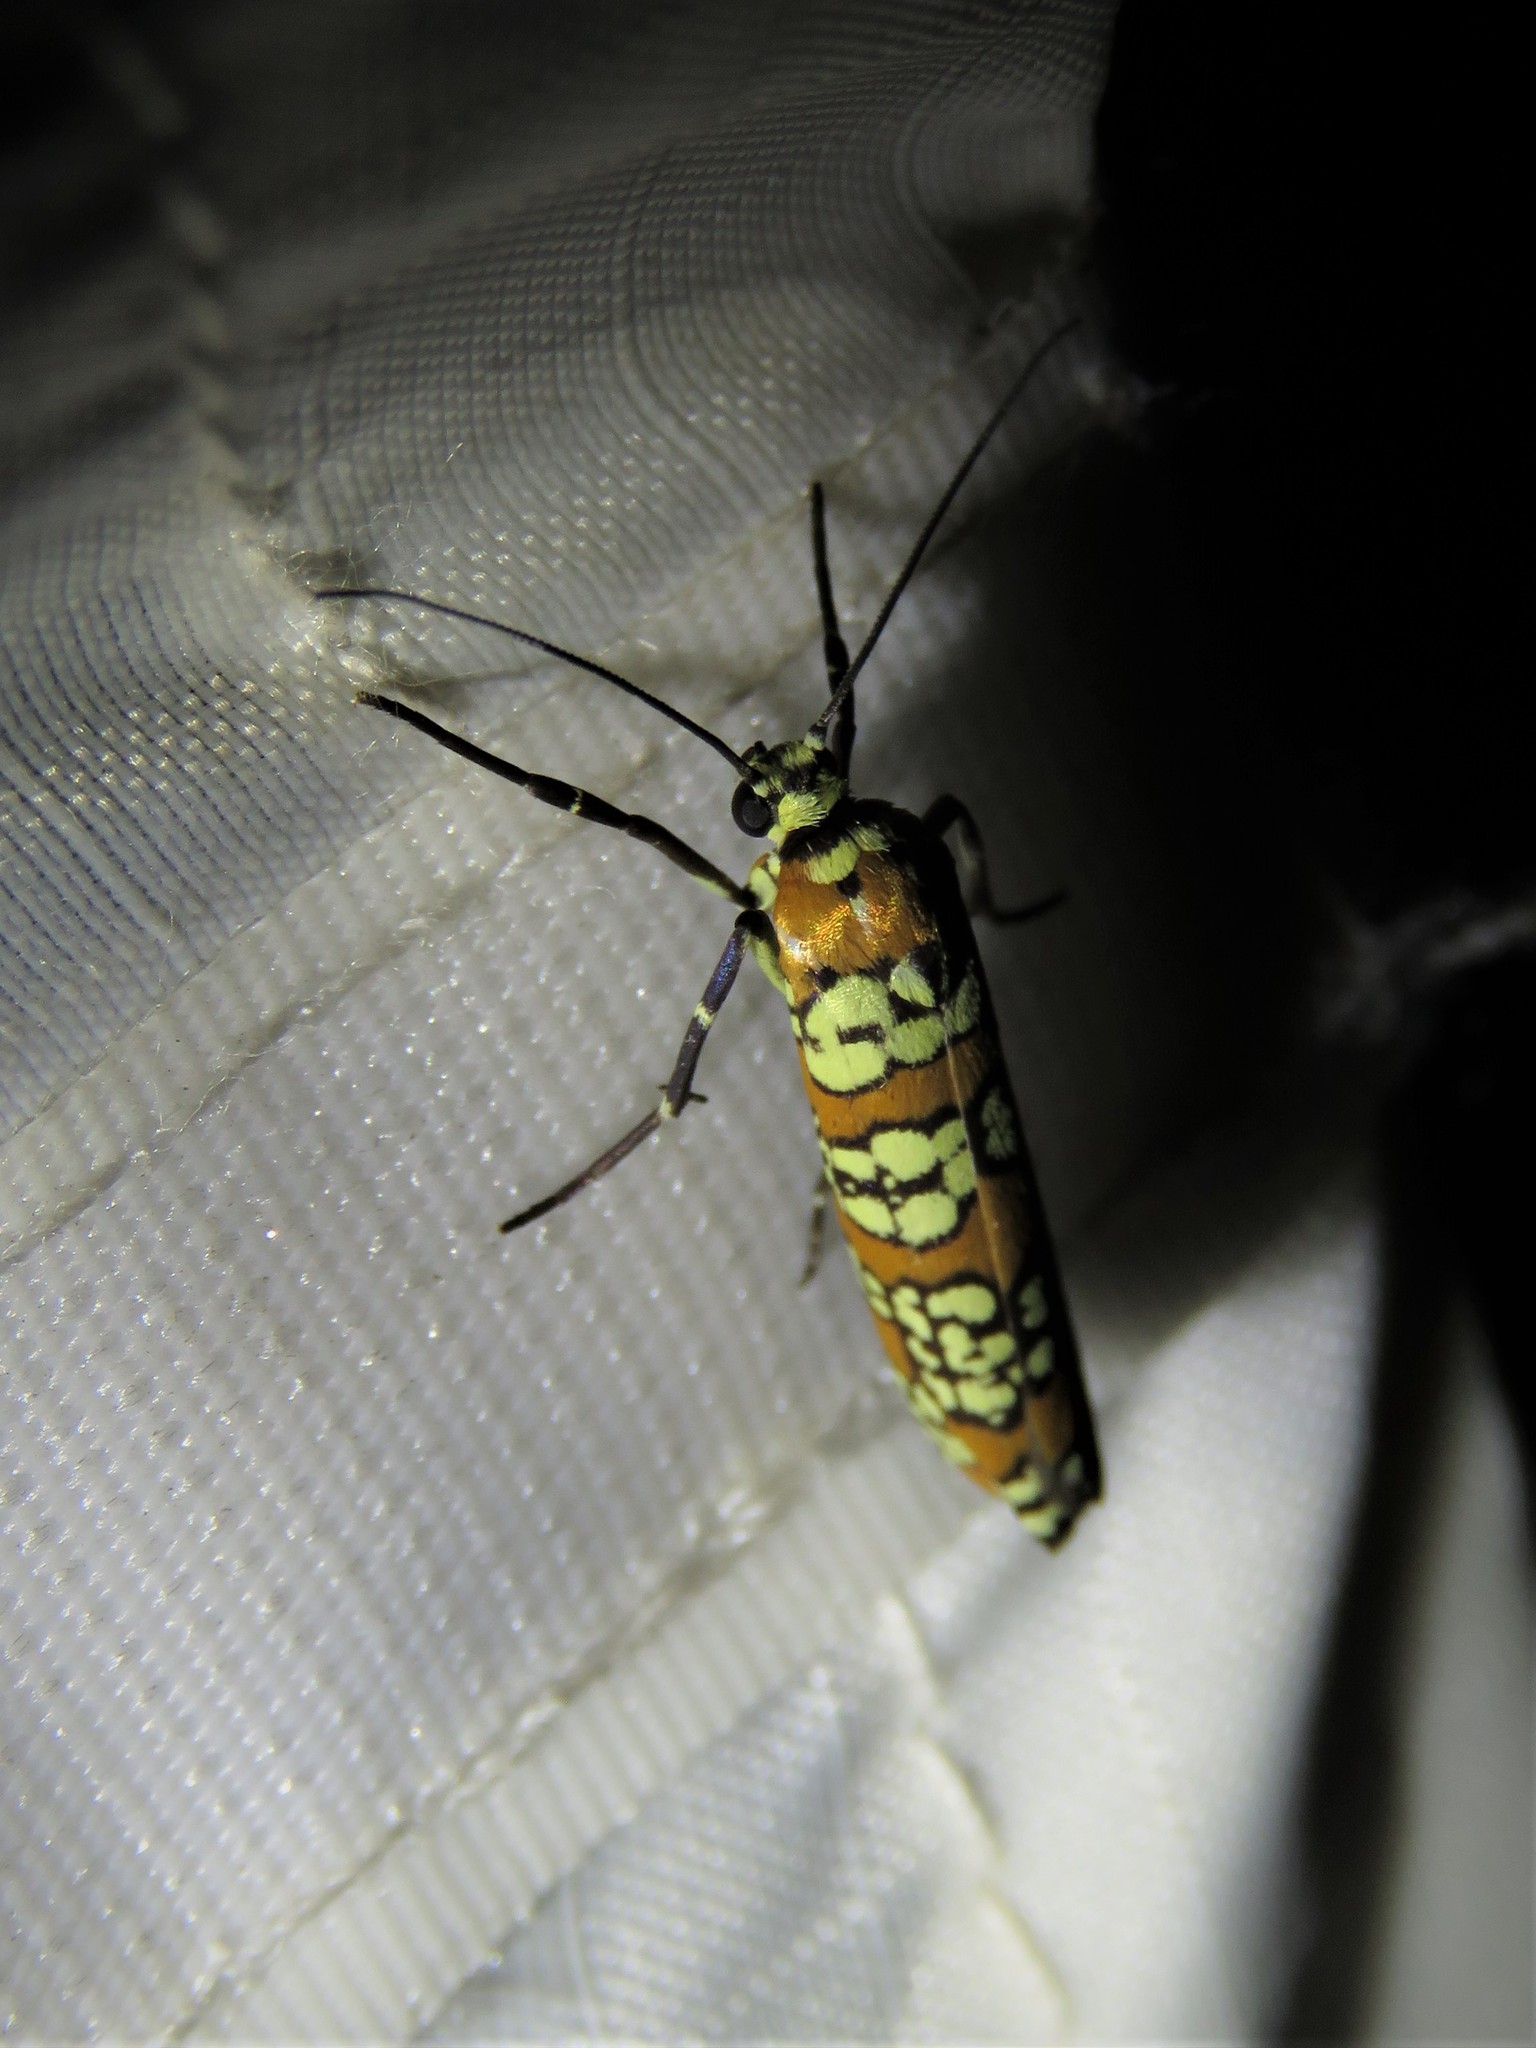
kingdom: Animalia
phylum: Arthropoda
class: Insecta
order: Lepidoptera
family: Attevidae
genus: Atteva
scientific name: Atteva punctella
